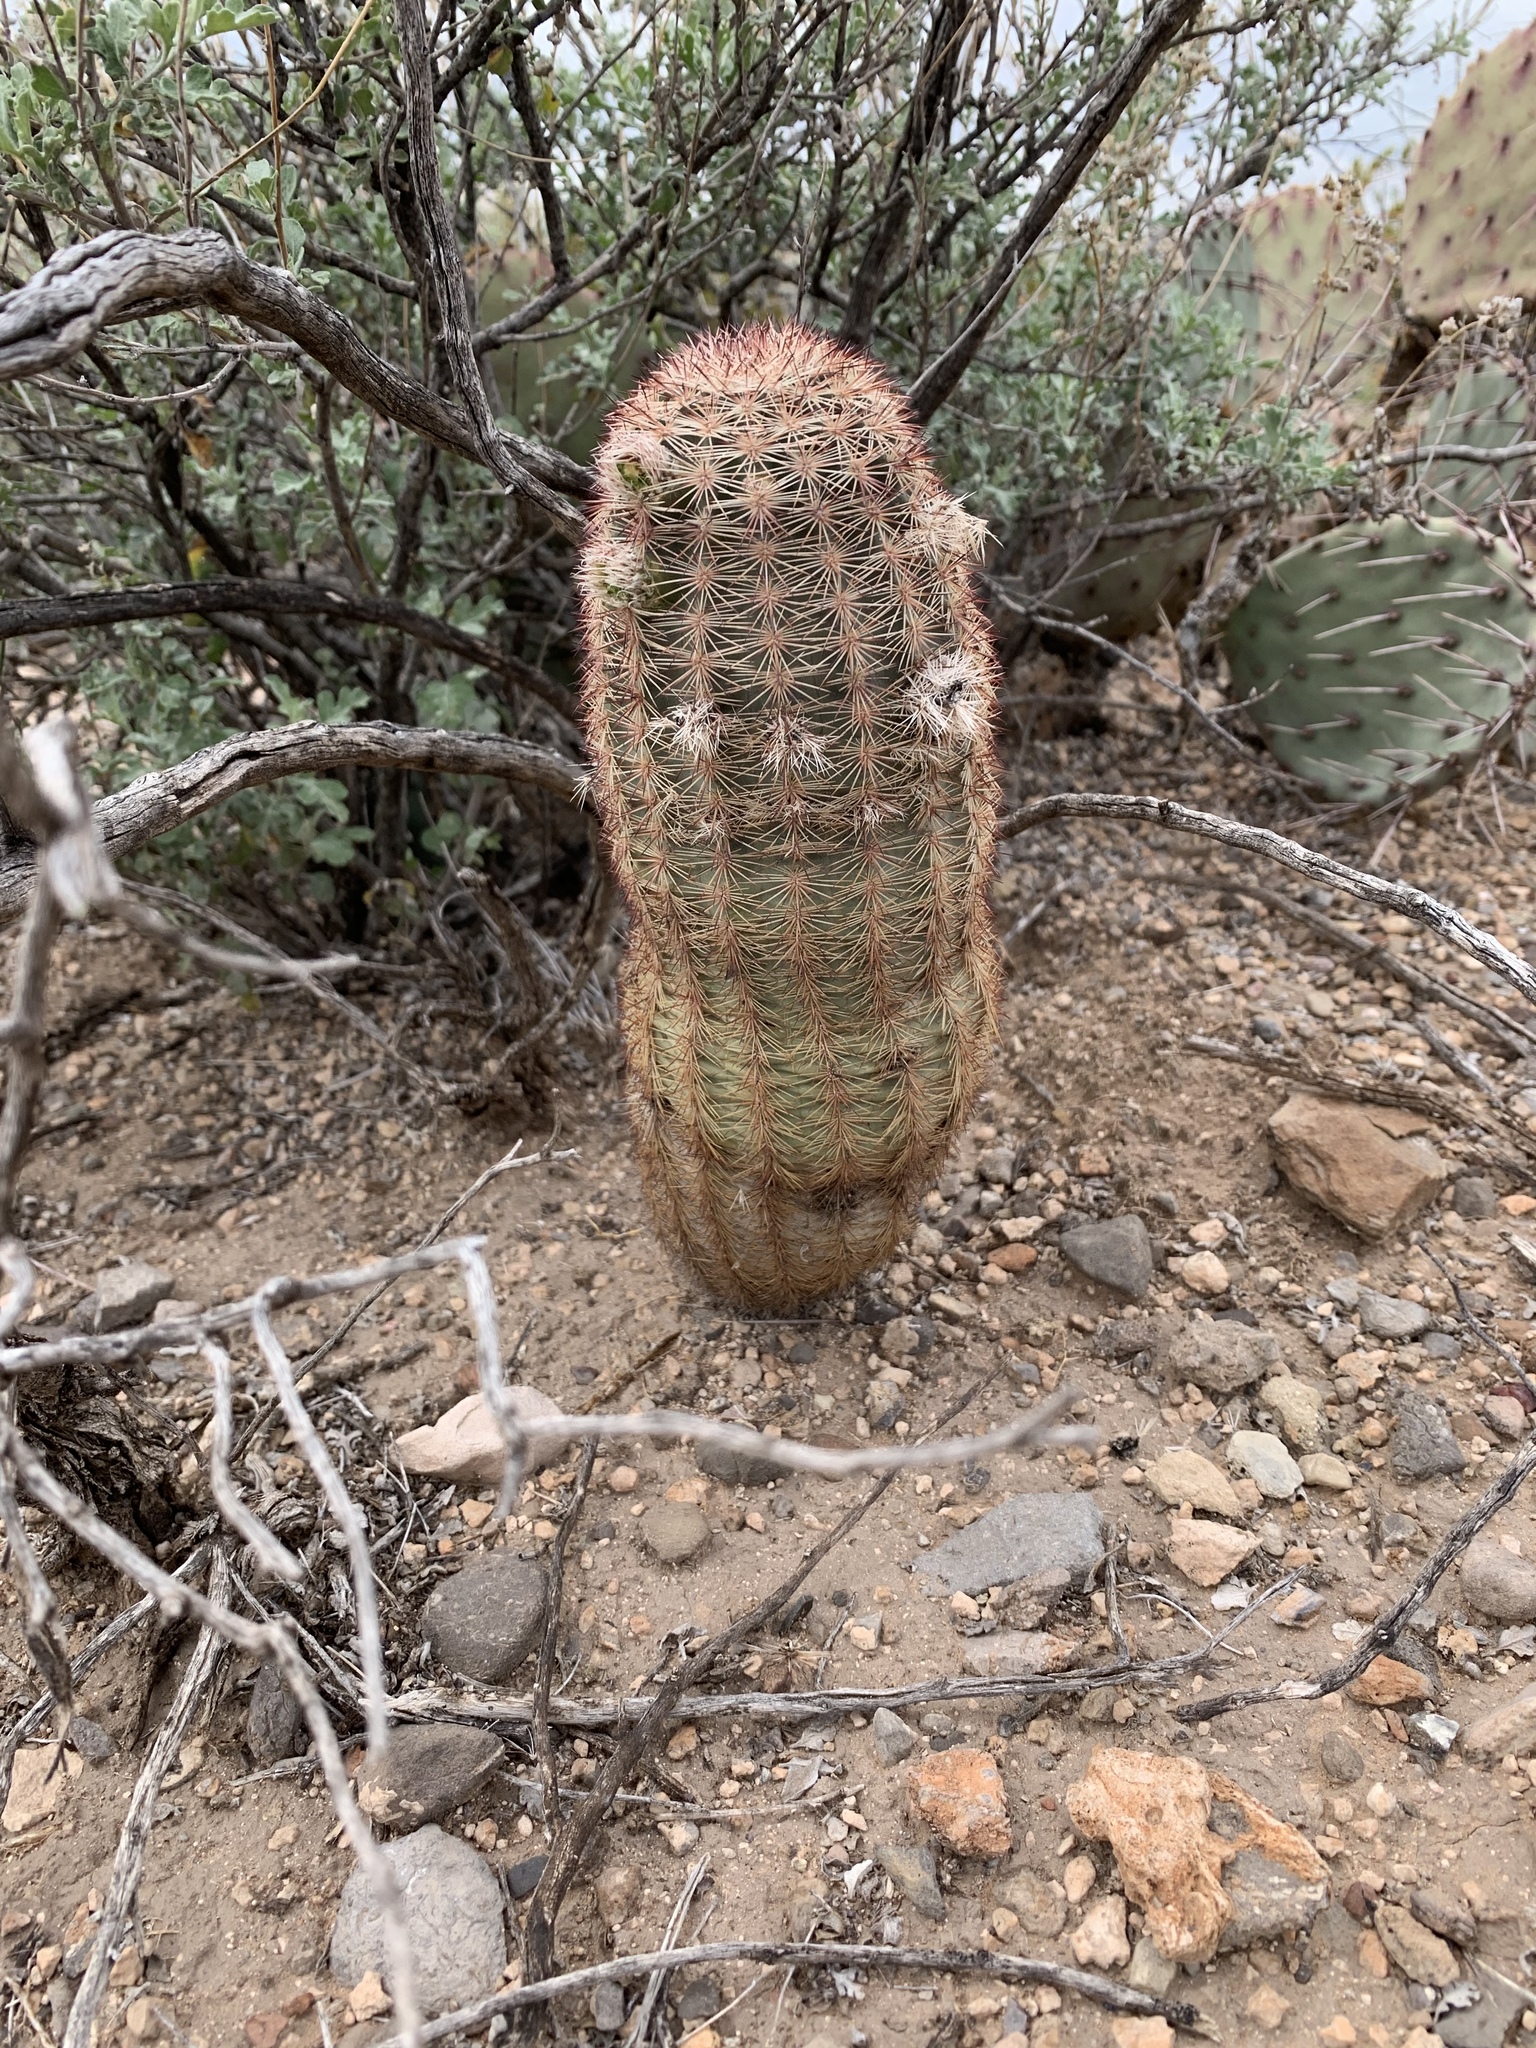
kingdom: Plantae
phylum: Tracheophyta
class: Magnoliopsida
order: Caryophyllales
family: Cactaceae
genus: Echinocereus
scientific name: Echinocereus dasyacanthus
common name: Spiny hedgehog cactus
